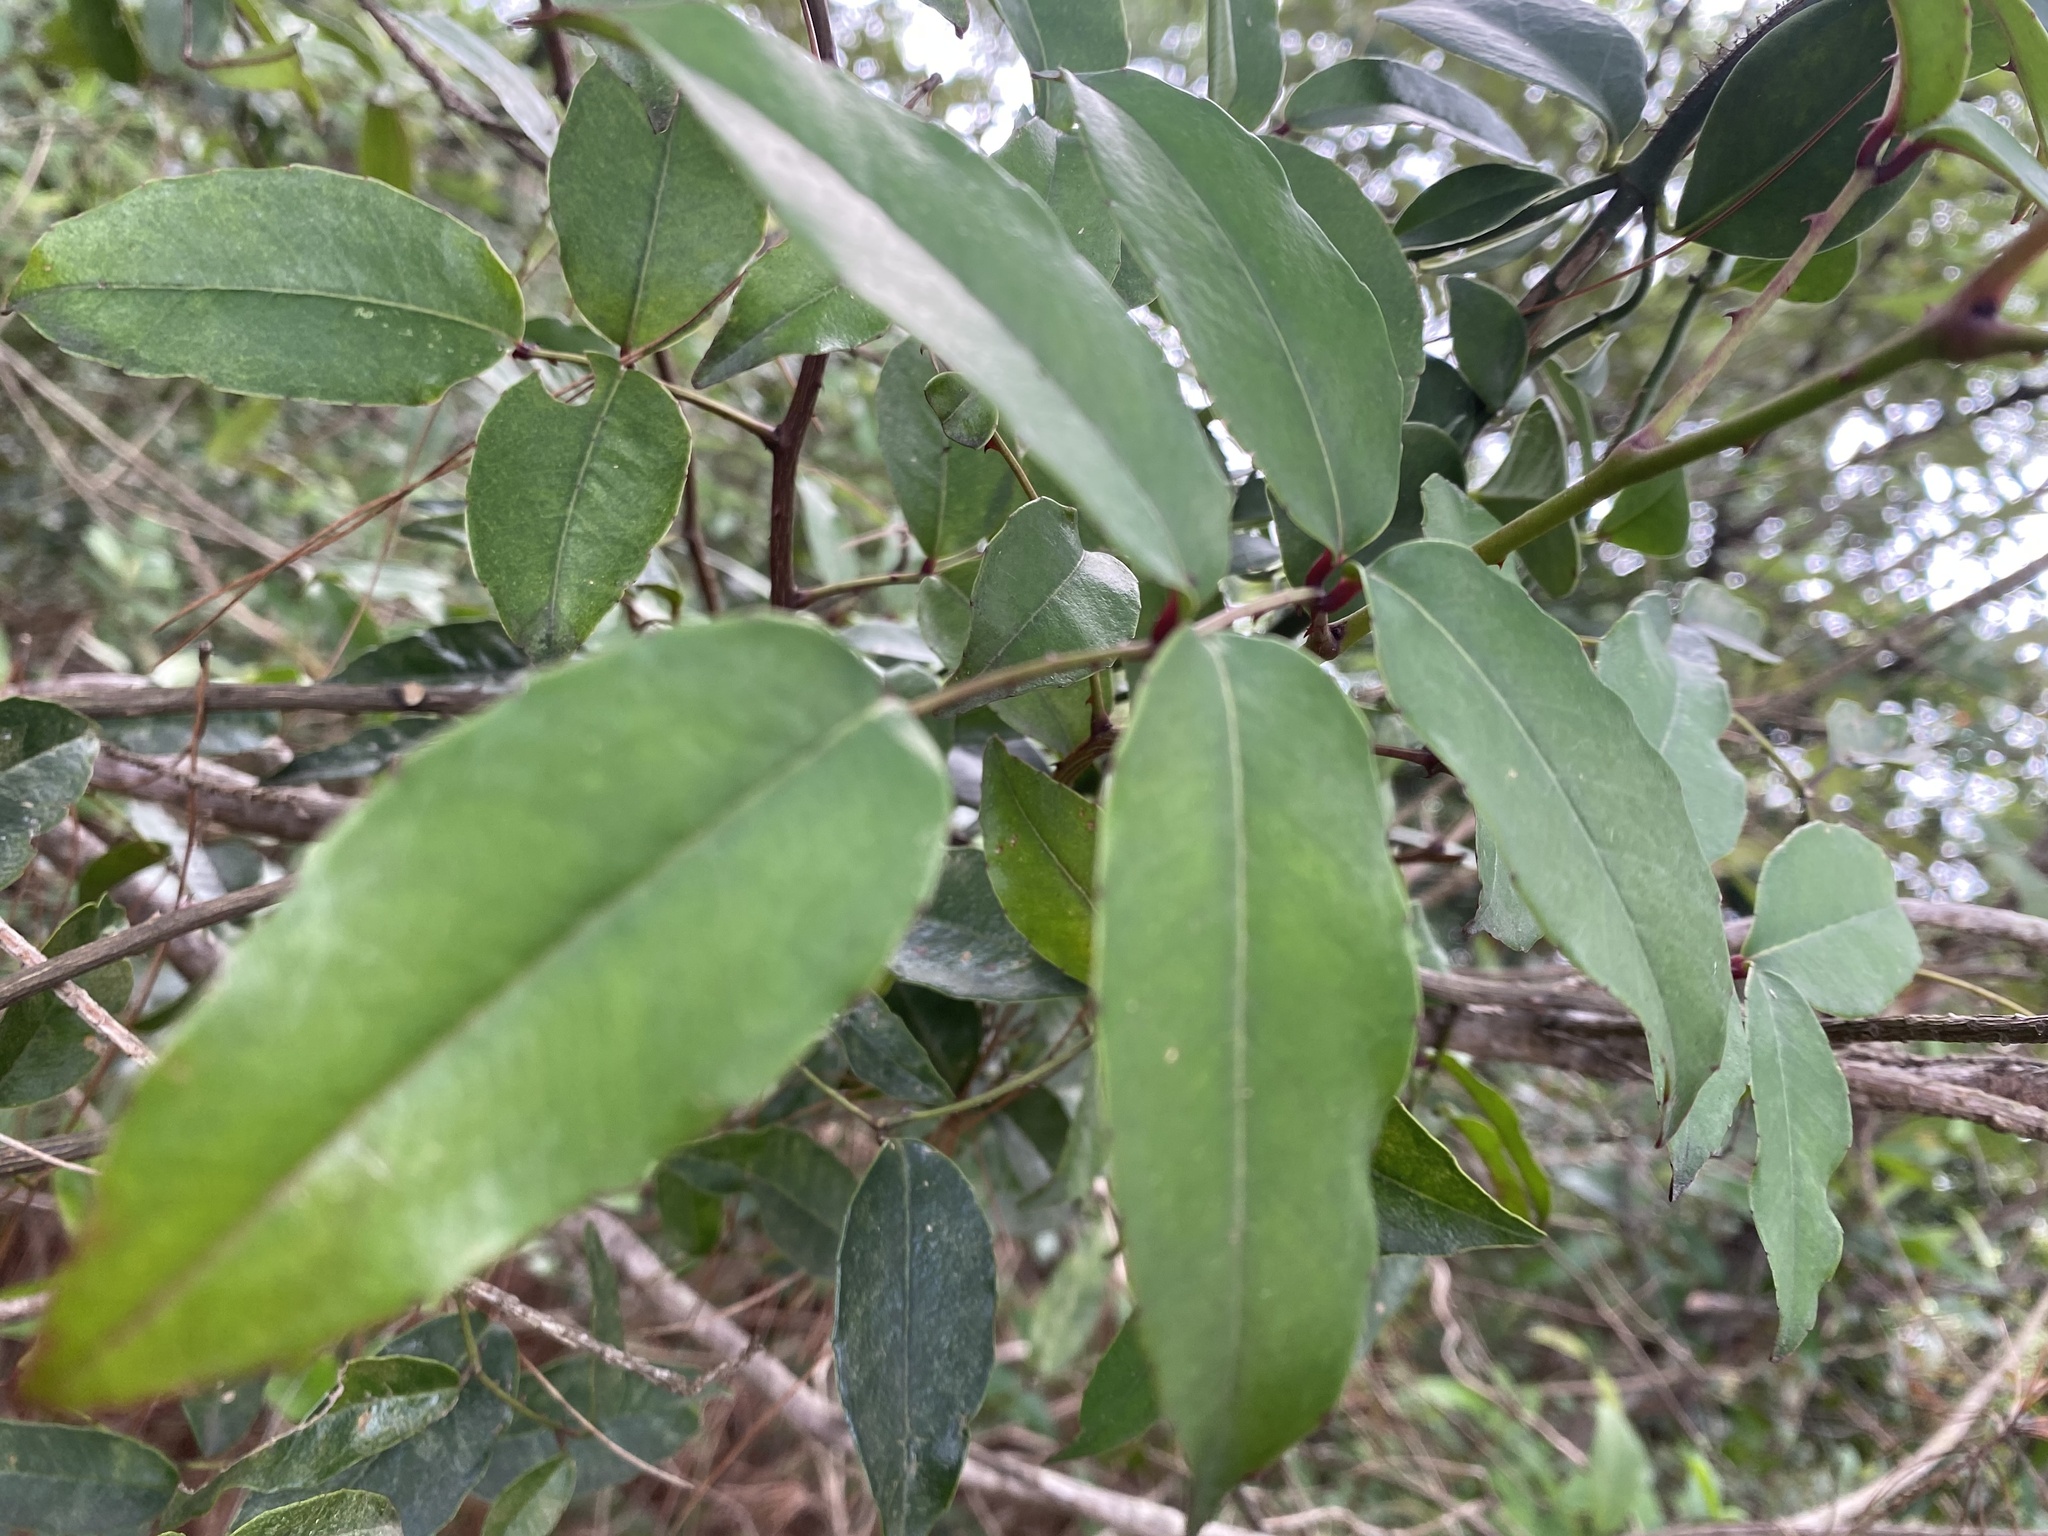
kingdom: Plantae
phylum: Tracheophyta
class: Magnoliopsida
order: Sapindales
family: Rutaceae
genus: Zanthoxylum
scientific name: Zanthoxylum nitidum
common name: Shiny-leaf prickly-ash
